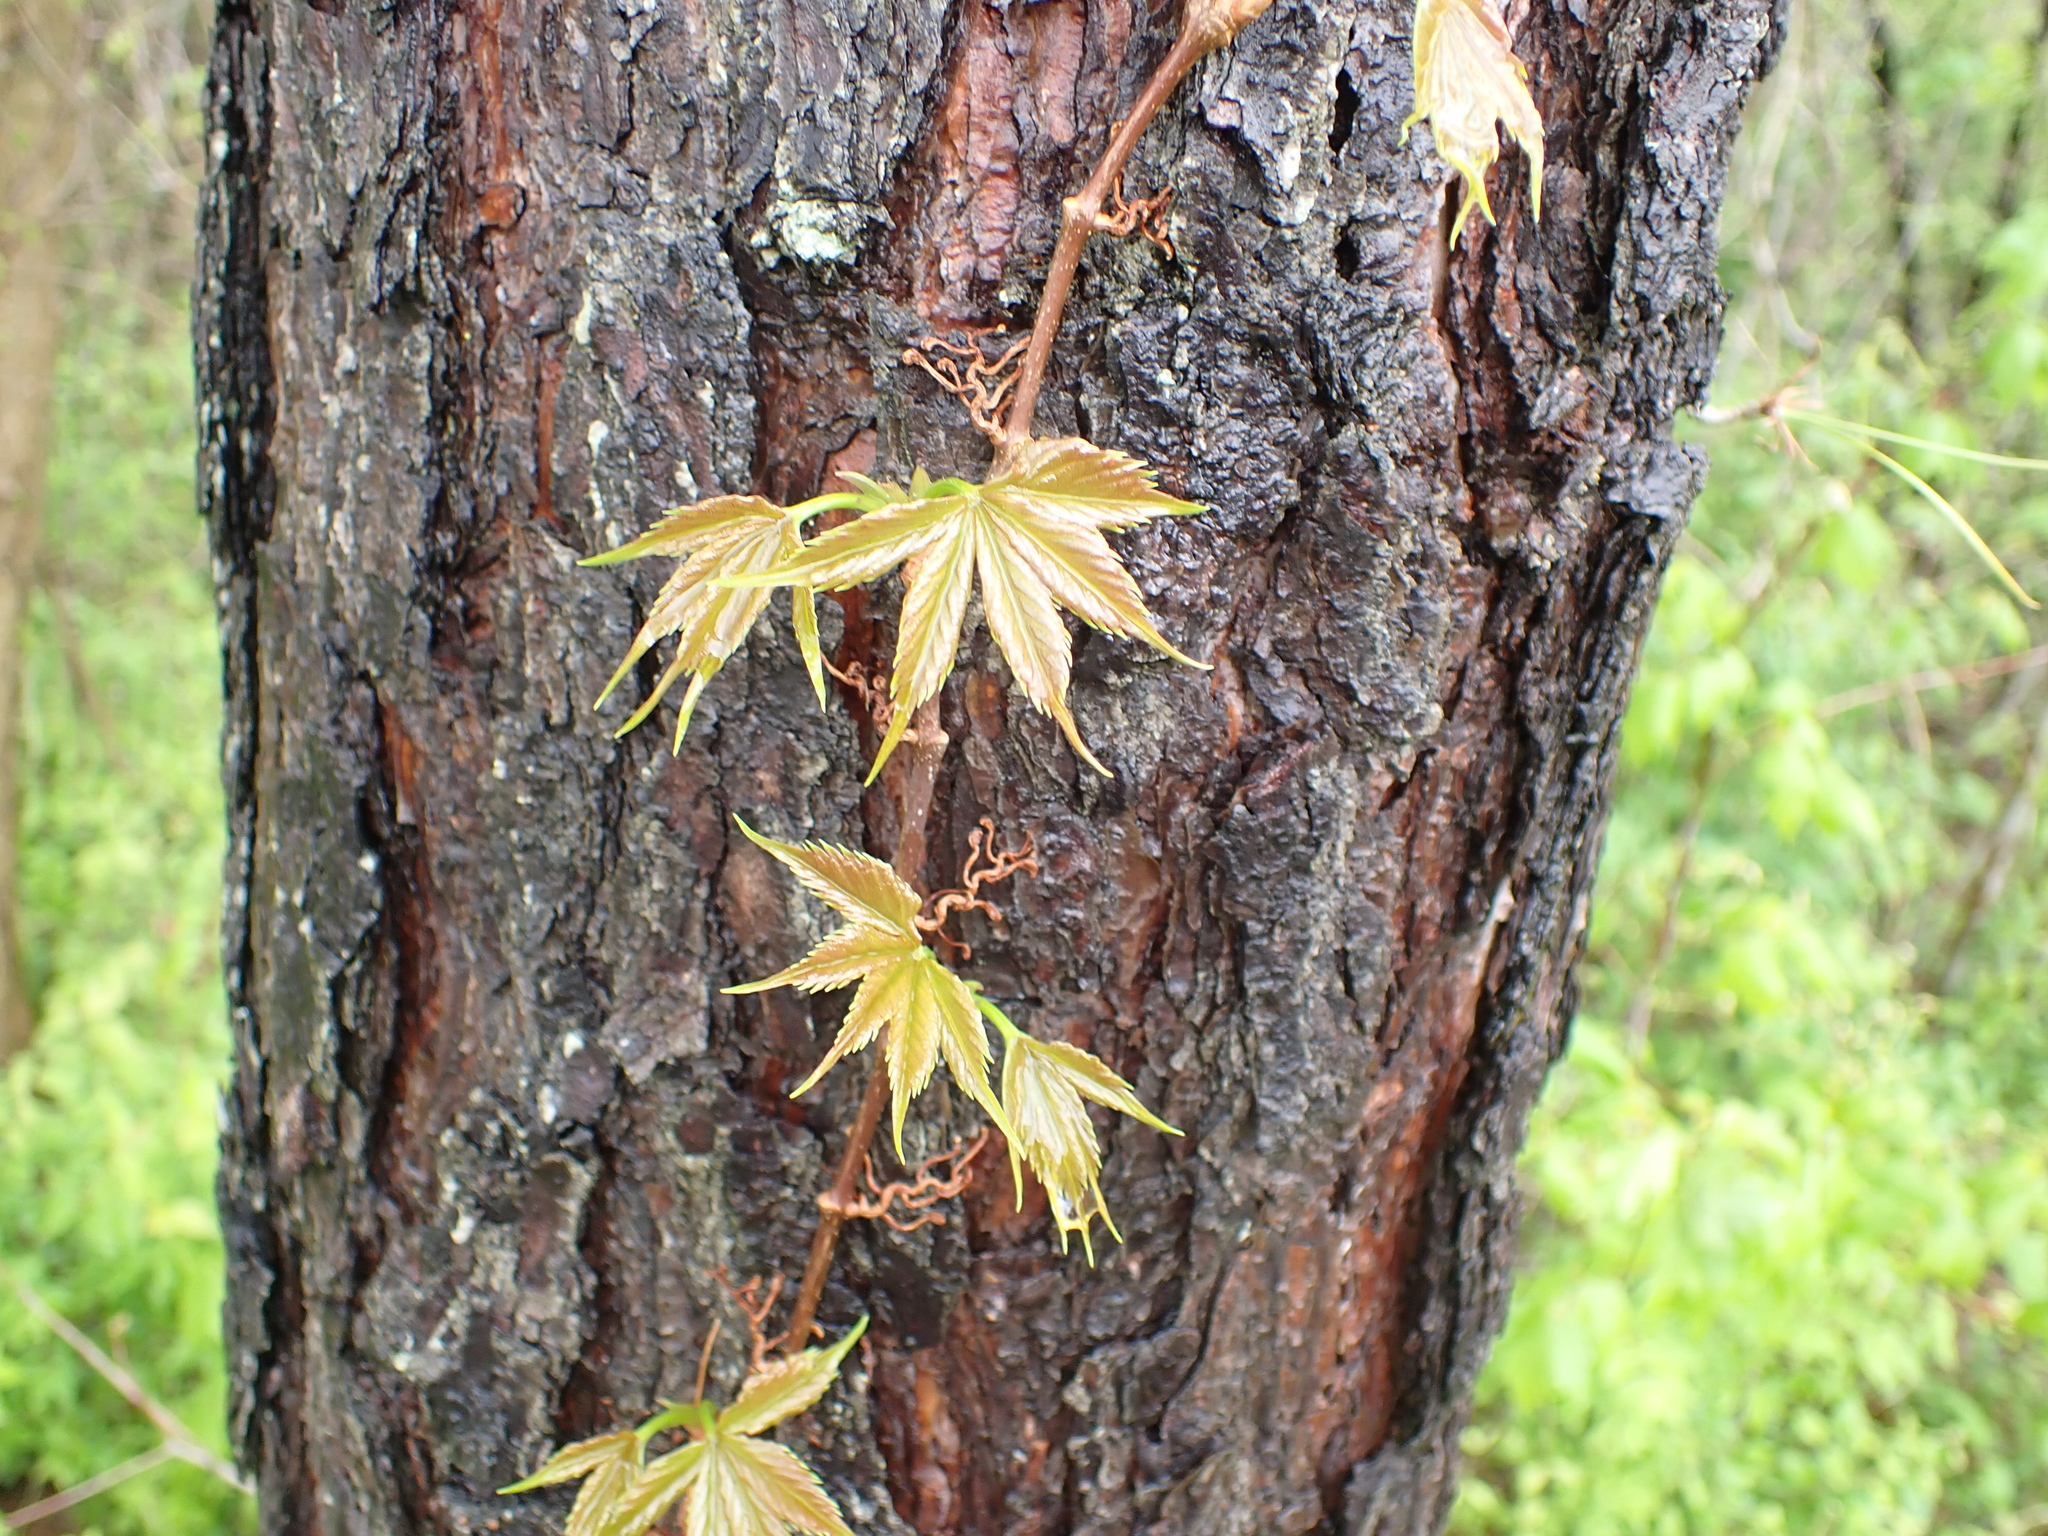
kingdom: Plantae
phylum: Tracheophyta
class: Magnoliopsida
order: Vitales
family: Vitaceae
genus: Parthenocissus
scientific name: Parthenocissus quinquefolia
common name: Virginia-creeper
